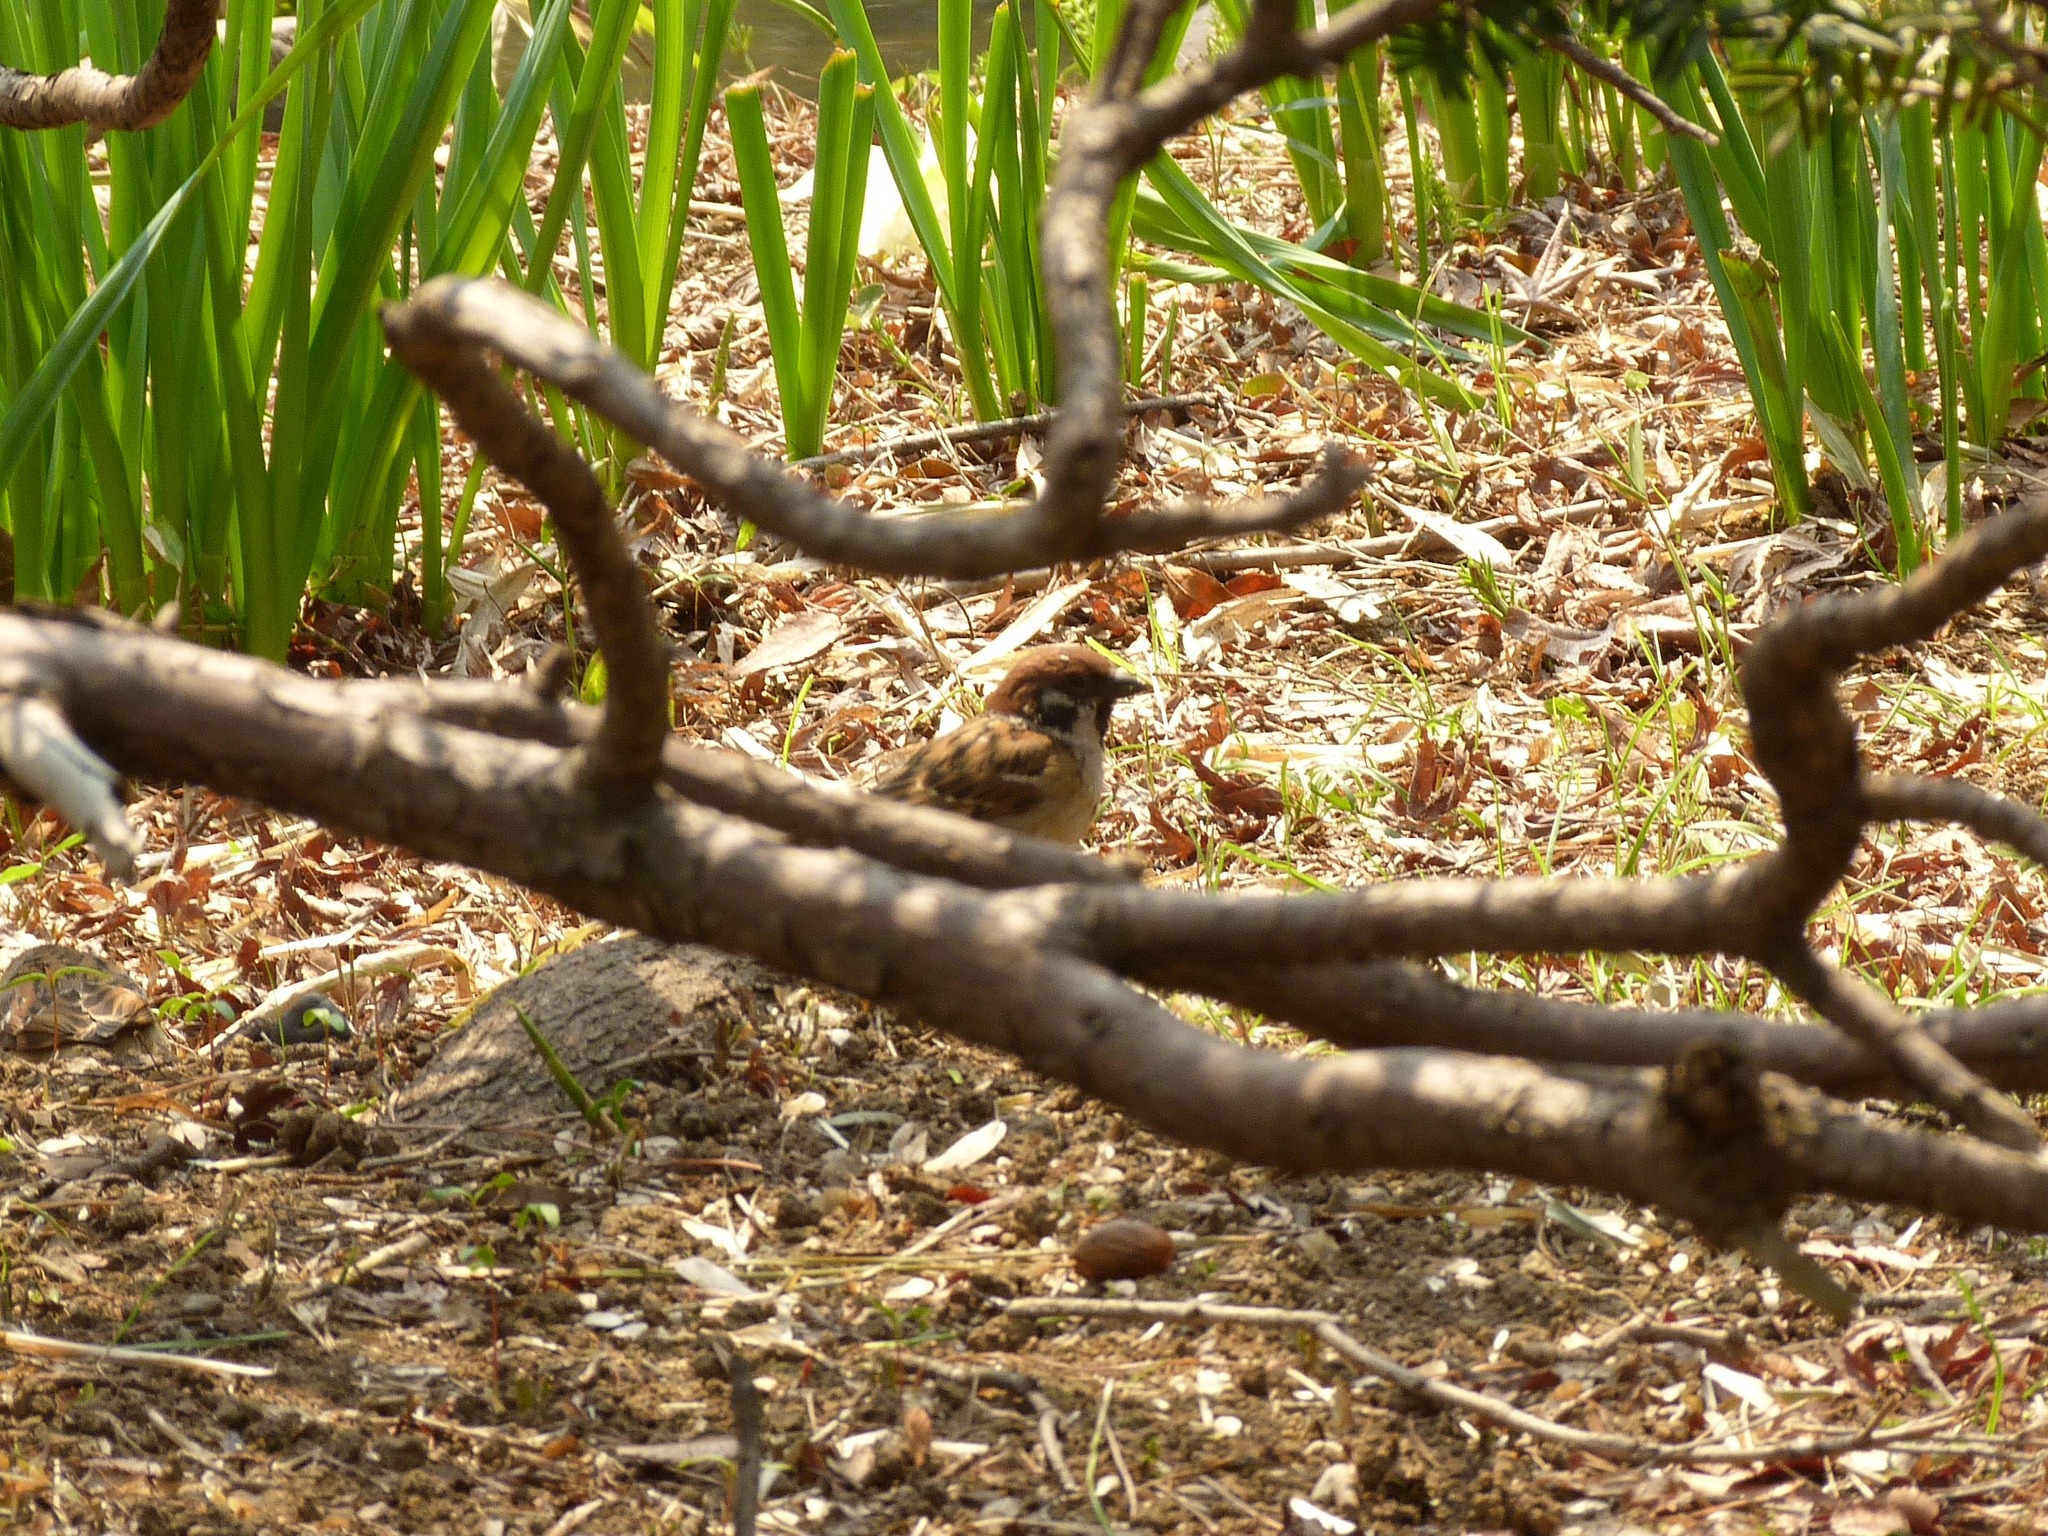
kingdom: Animalia
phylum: Chordata
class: Aves
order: Passeriformes
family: Passeridae
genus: Passer
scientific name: Passer montanus
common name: Eurasian tree sparrow
